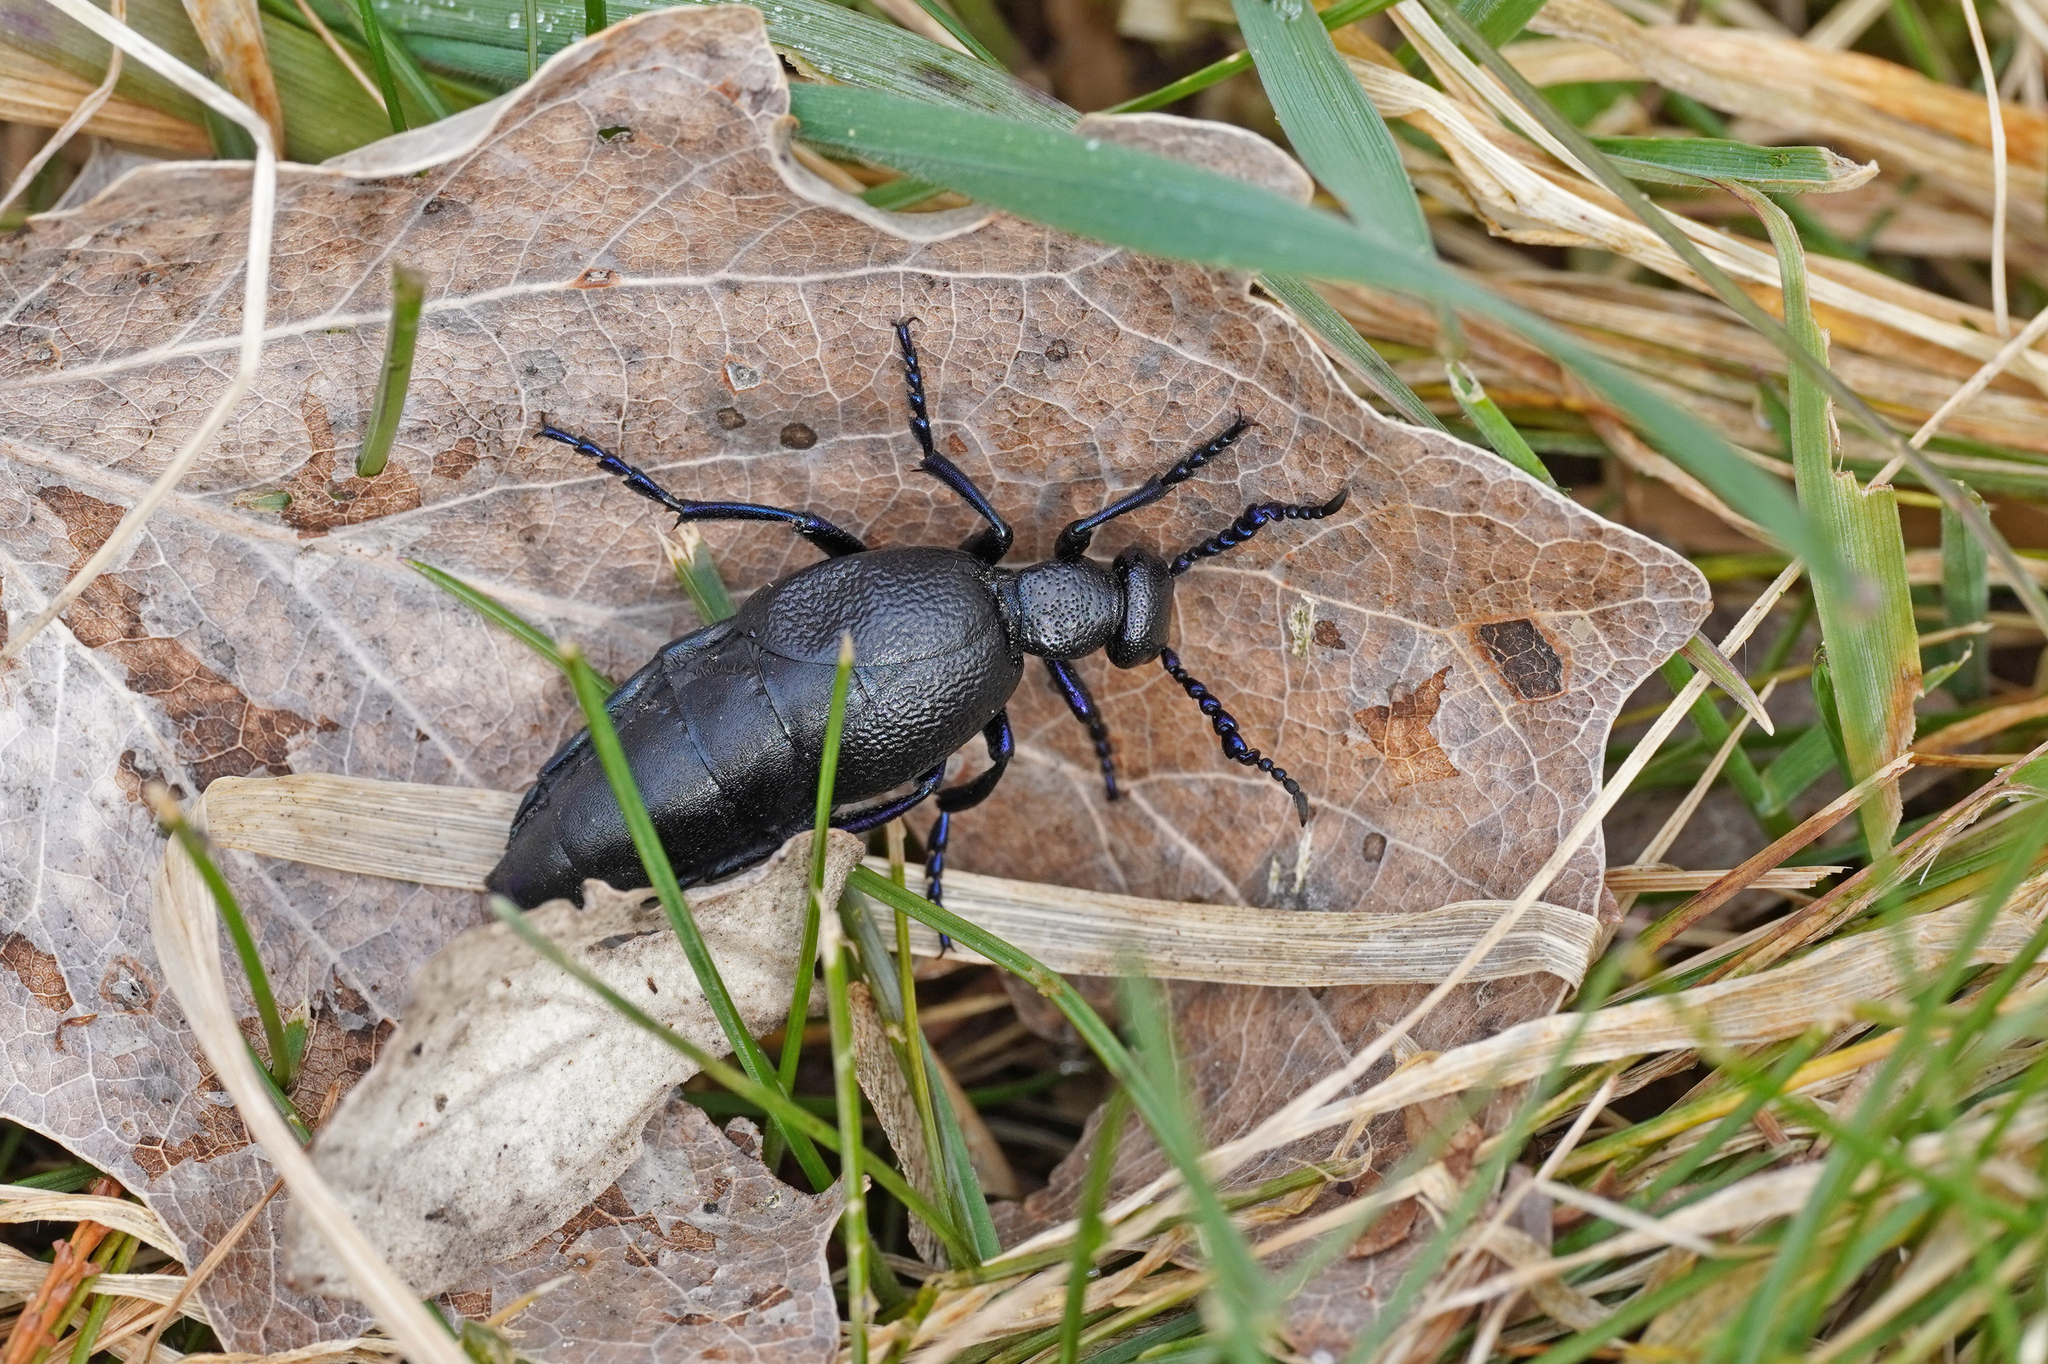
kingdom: Animalia
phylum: Arthropoda
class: Insecta
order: Coleoptera
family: Meloidae
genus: Meloe
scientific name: Meloe proscarabaeus
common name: Black oil-beetle
